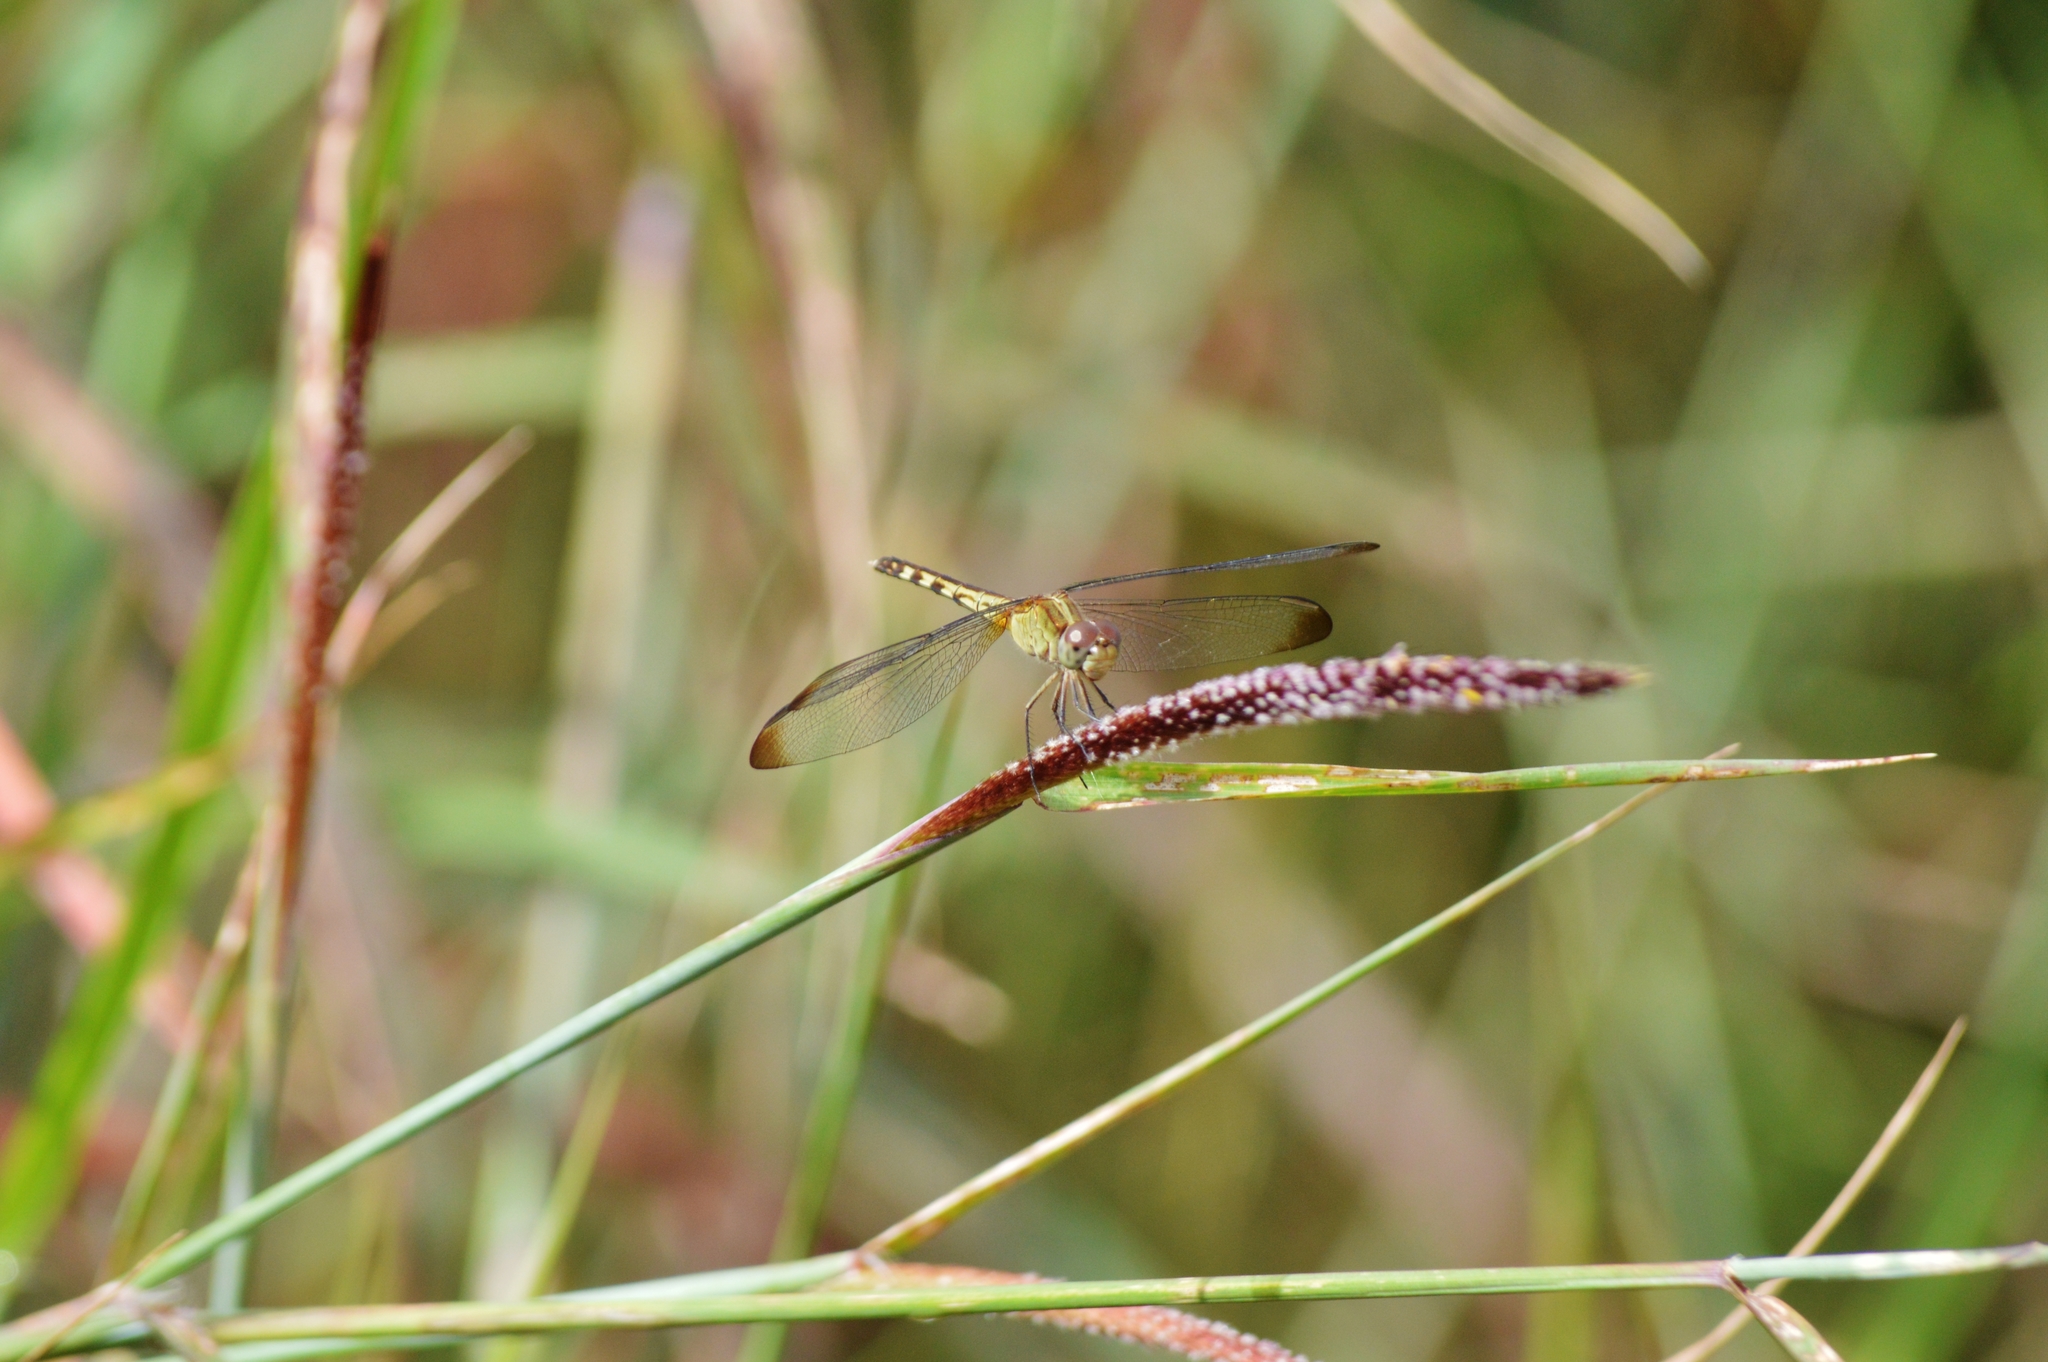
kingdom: Animalia
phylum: Arthropoda
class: Insecta
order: Odonata
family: Libellulidae
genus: Erythrodiplax
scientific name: Erythrodiplax umbrata
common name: Band-winged dragonlet
